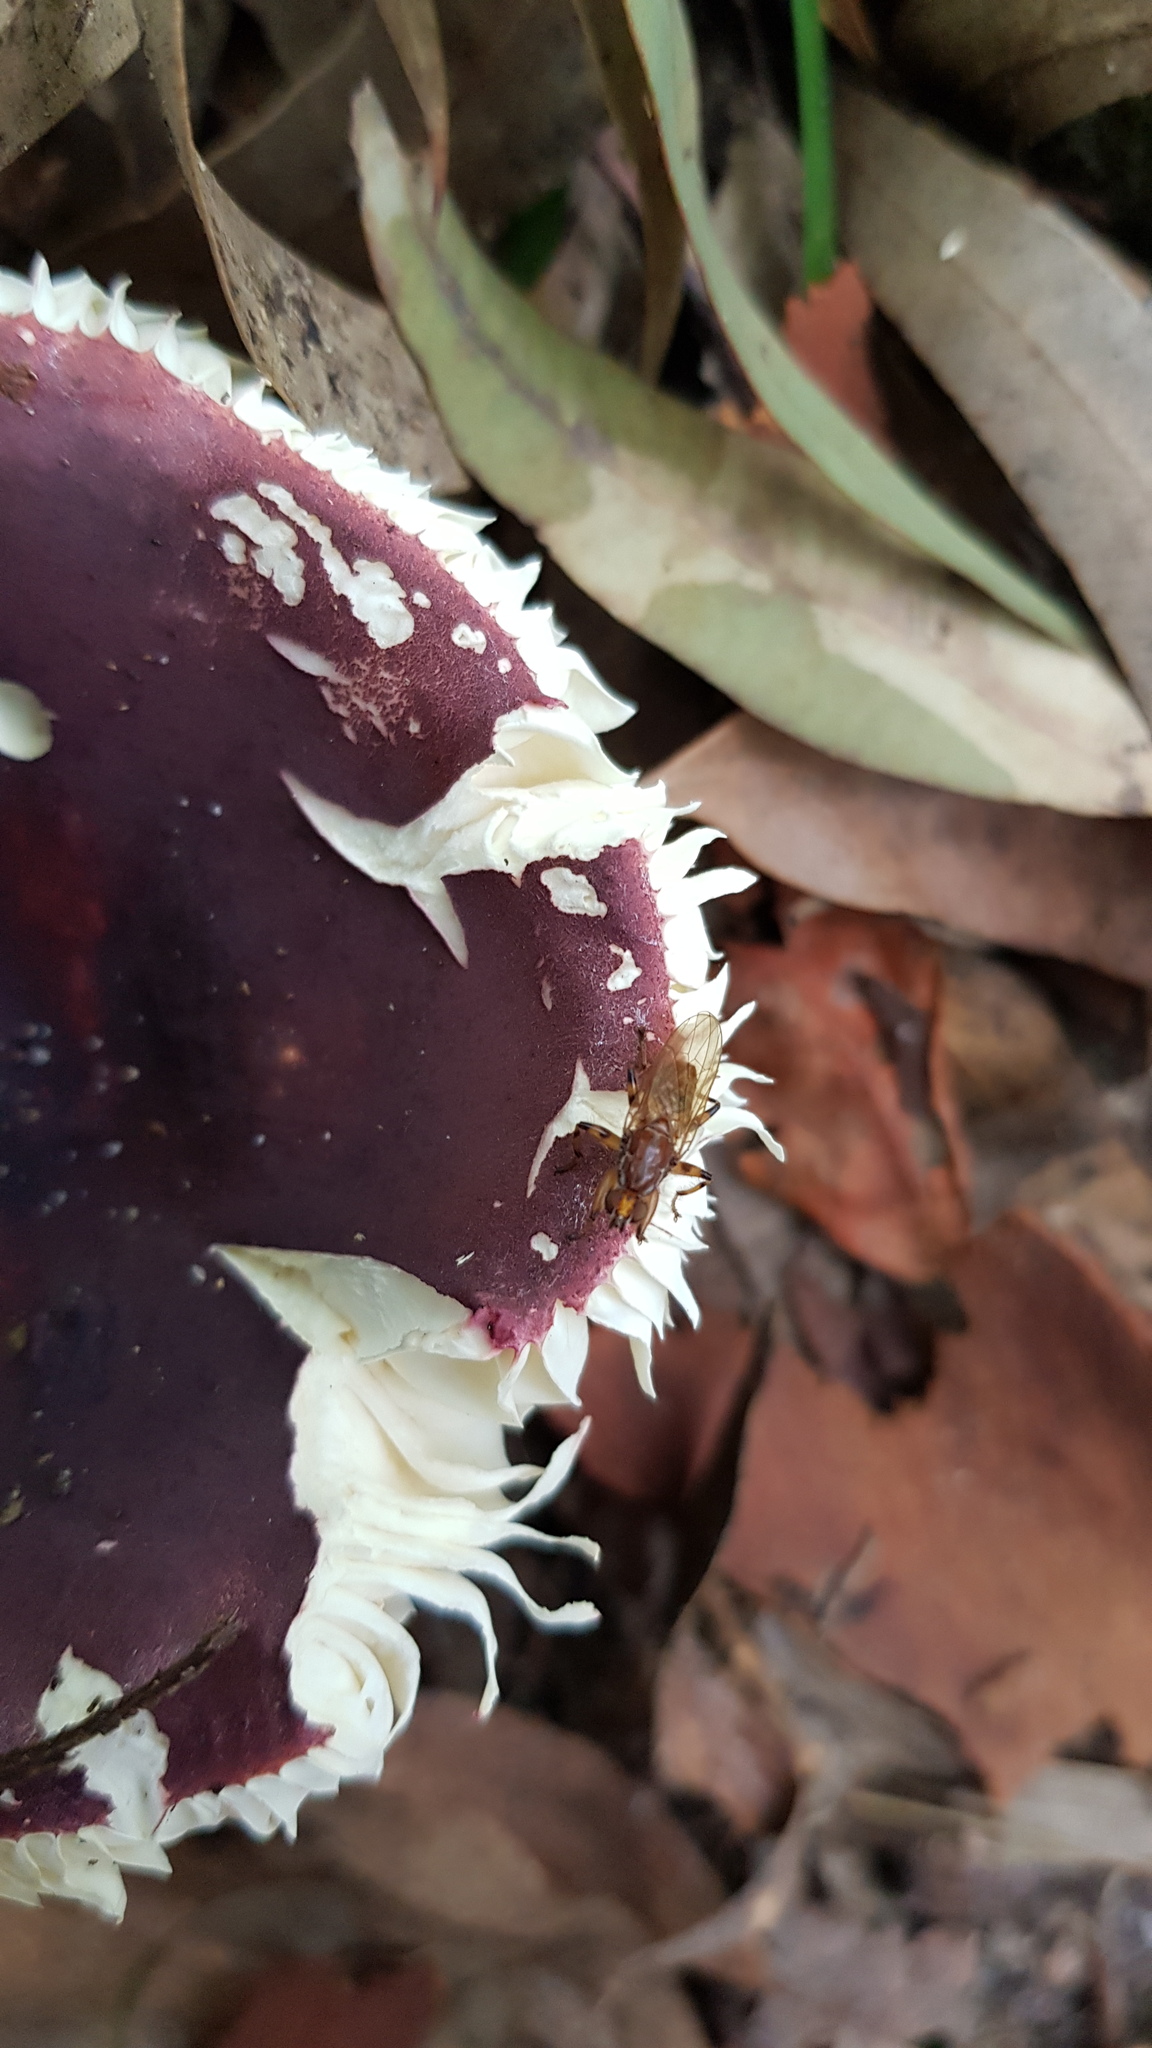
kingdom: Animalia
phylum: Arthropoda
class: Insecta
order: Diptera
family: Heleomyzidae
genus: Tapeigaster
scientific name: Tapeigaster annulipes
